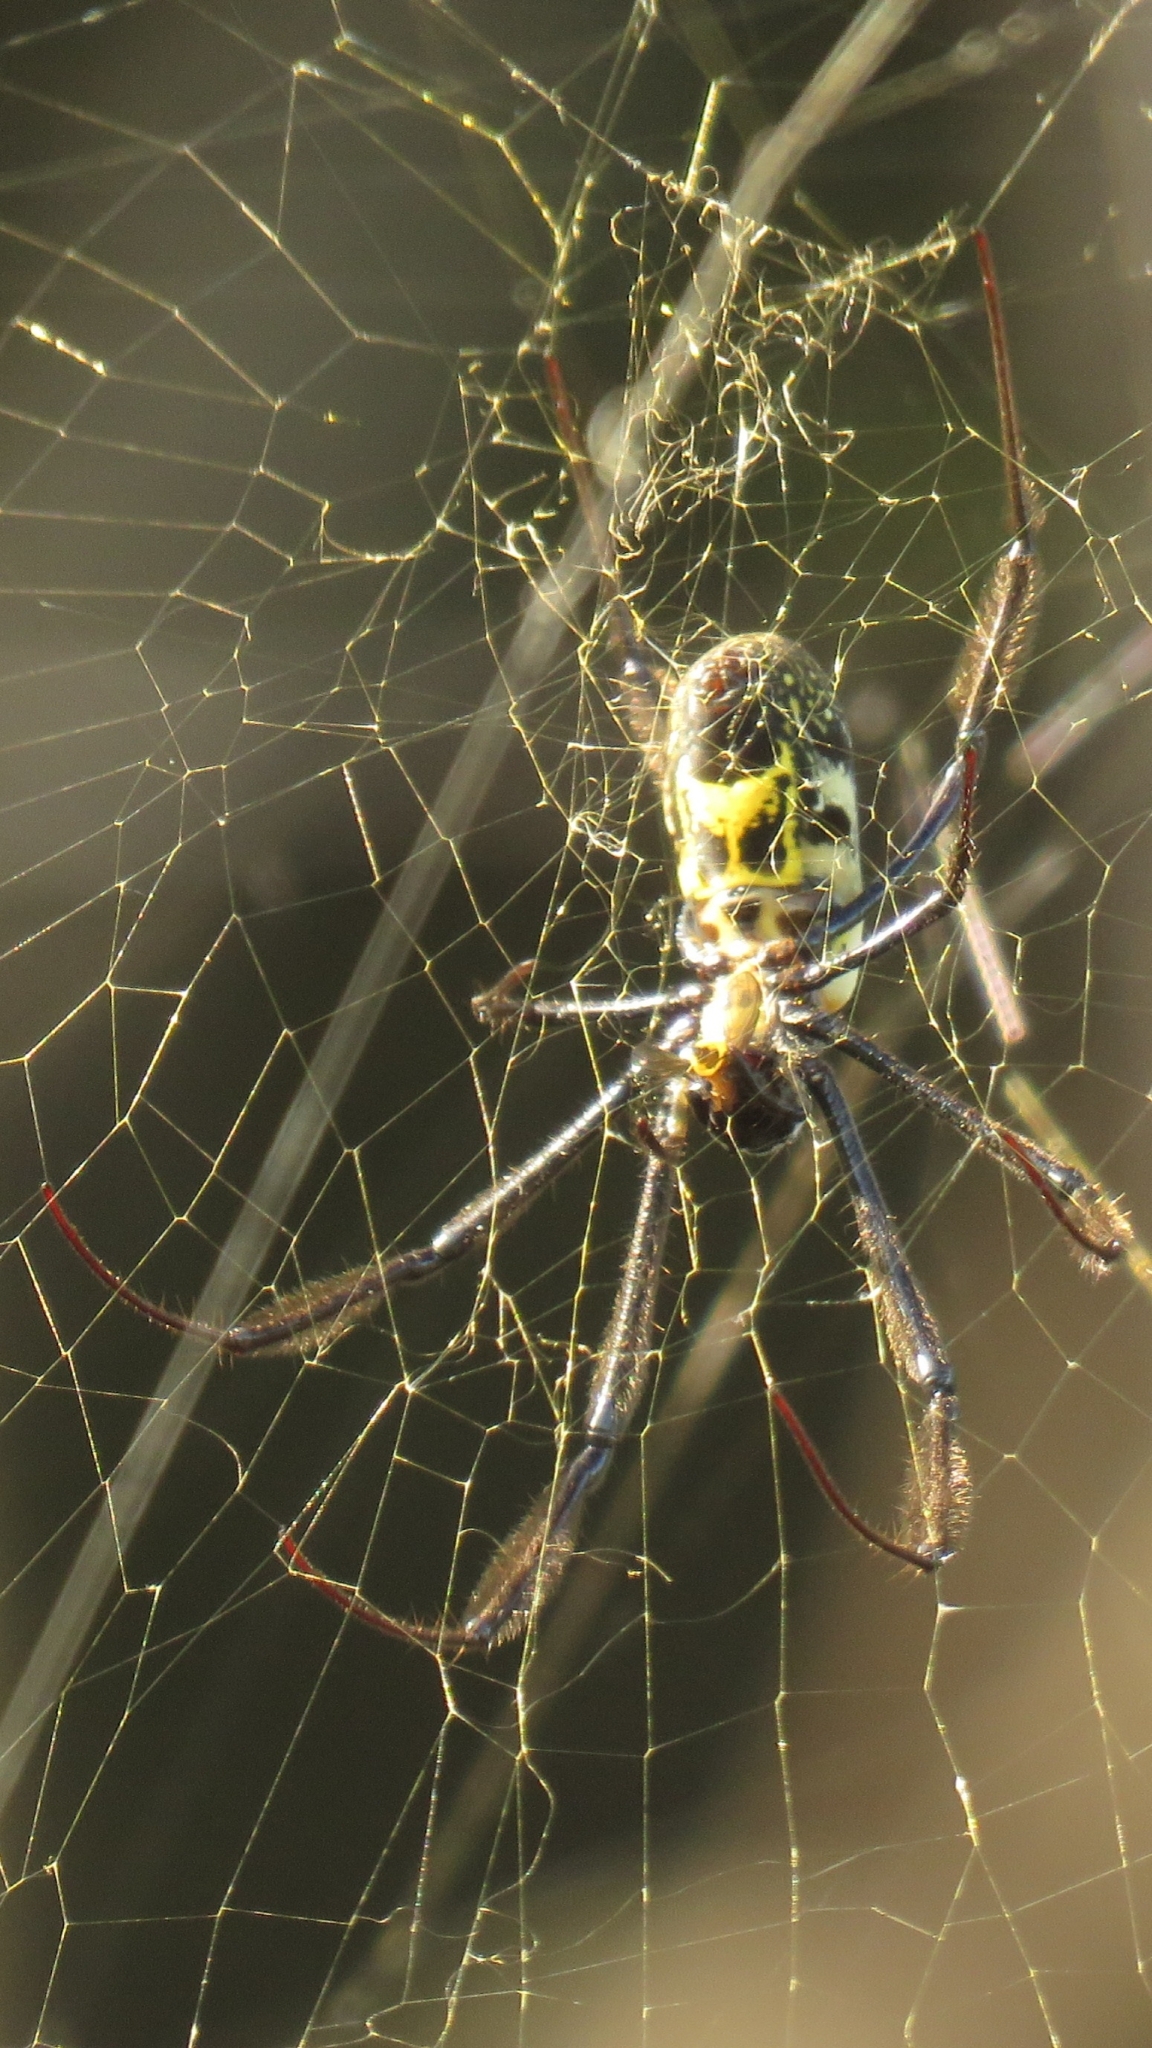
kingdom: Animalia
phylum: Arthropoda
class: Arachnida
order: Araneae
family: Araneidae
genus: Trichonephila
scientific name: Trichonephila fenestrata
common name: Hairy golden orb weaver
